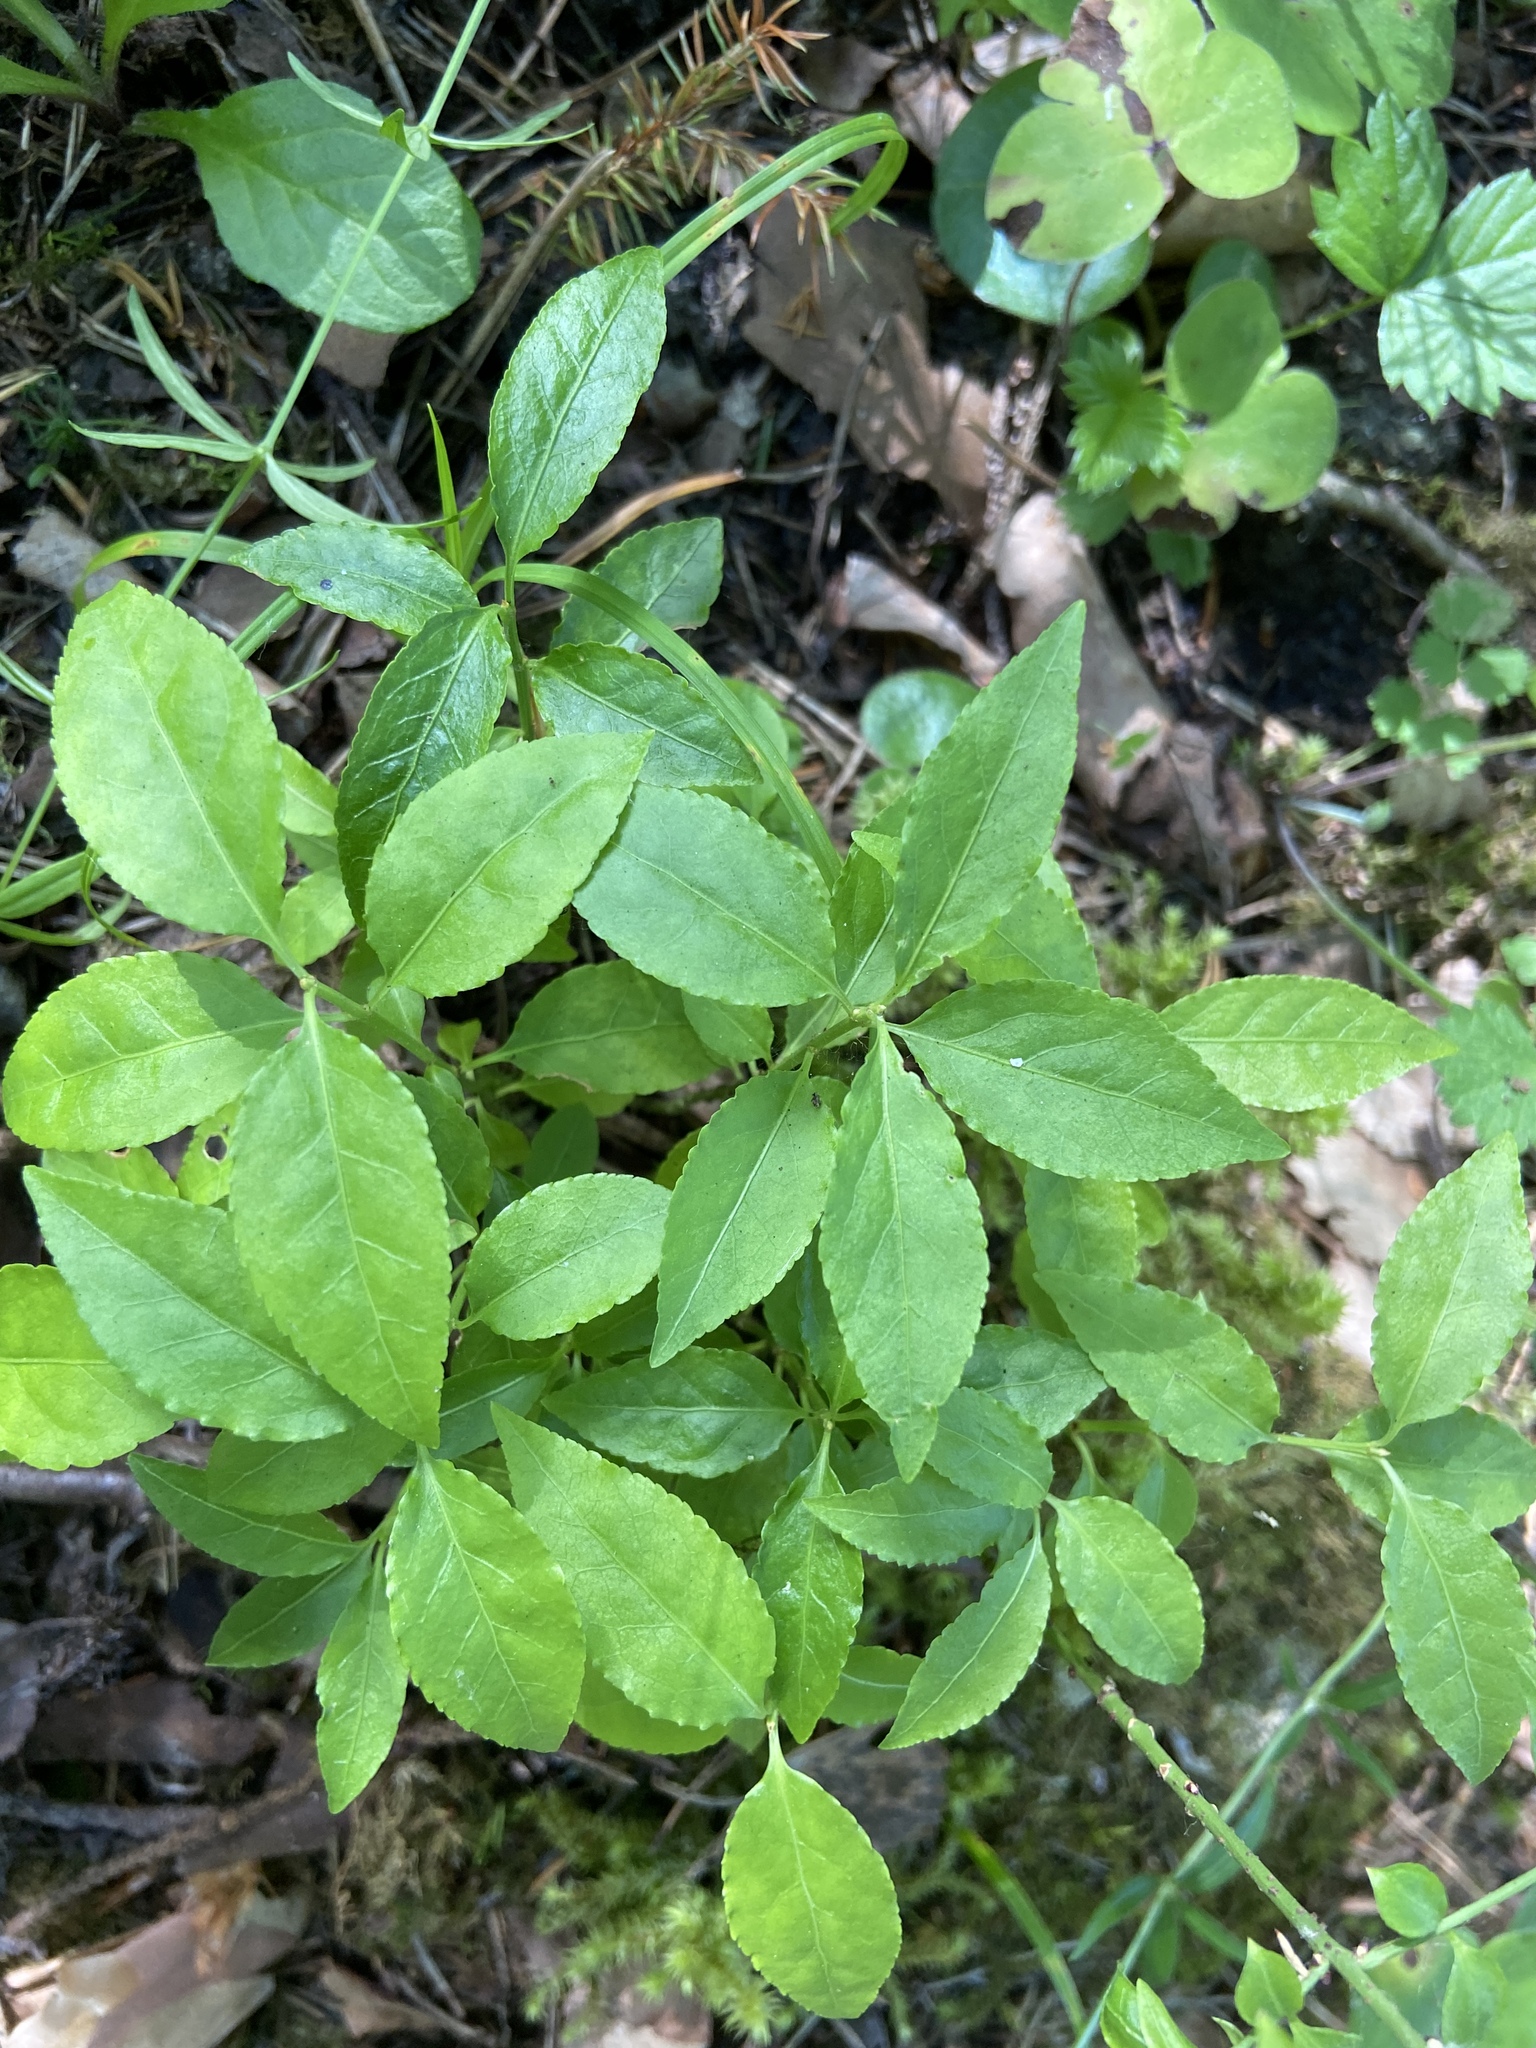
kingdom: Plantae
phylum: Tracheophyta
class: Magnoliopsida
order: Celastrales
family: Celastraceae
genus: Euonymus
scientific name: Euonymus verrucosus
